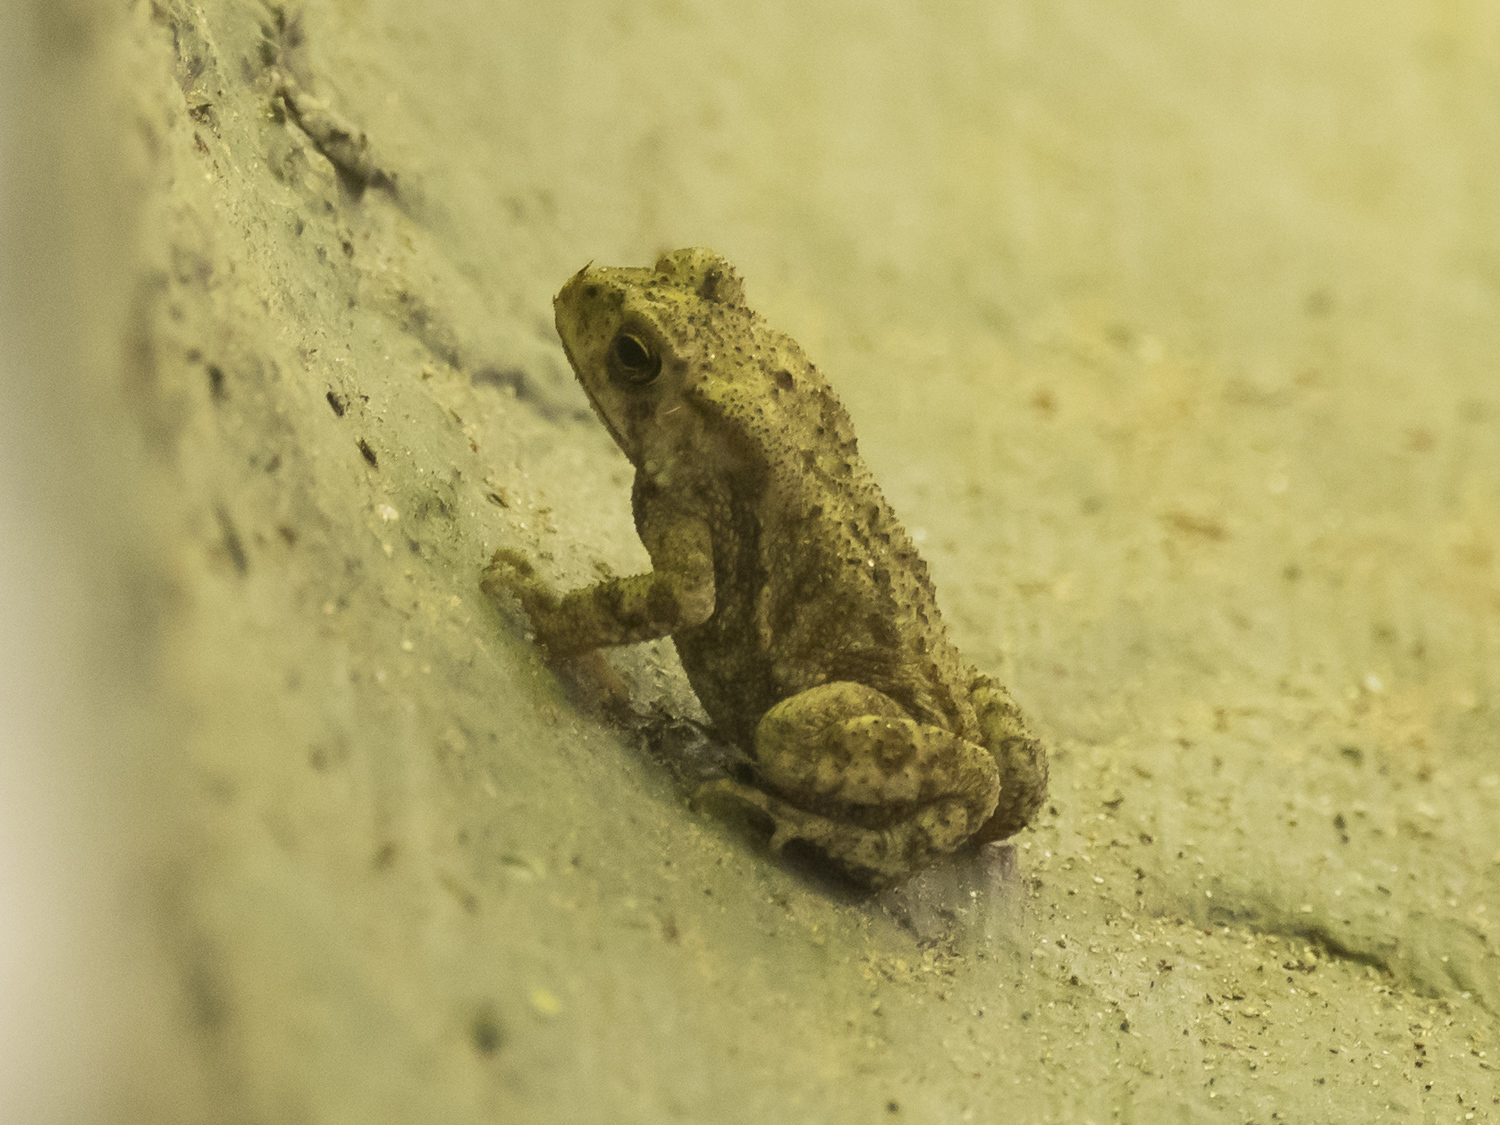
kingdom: Animalia
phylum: Chordata
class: Amphibia
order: Anura
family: Bufonidae
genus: Duttaphrynus
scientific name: Duttaphrynus melanostictus
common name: Common sunda toad
